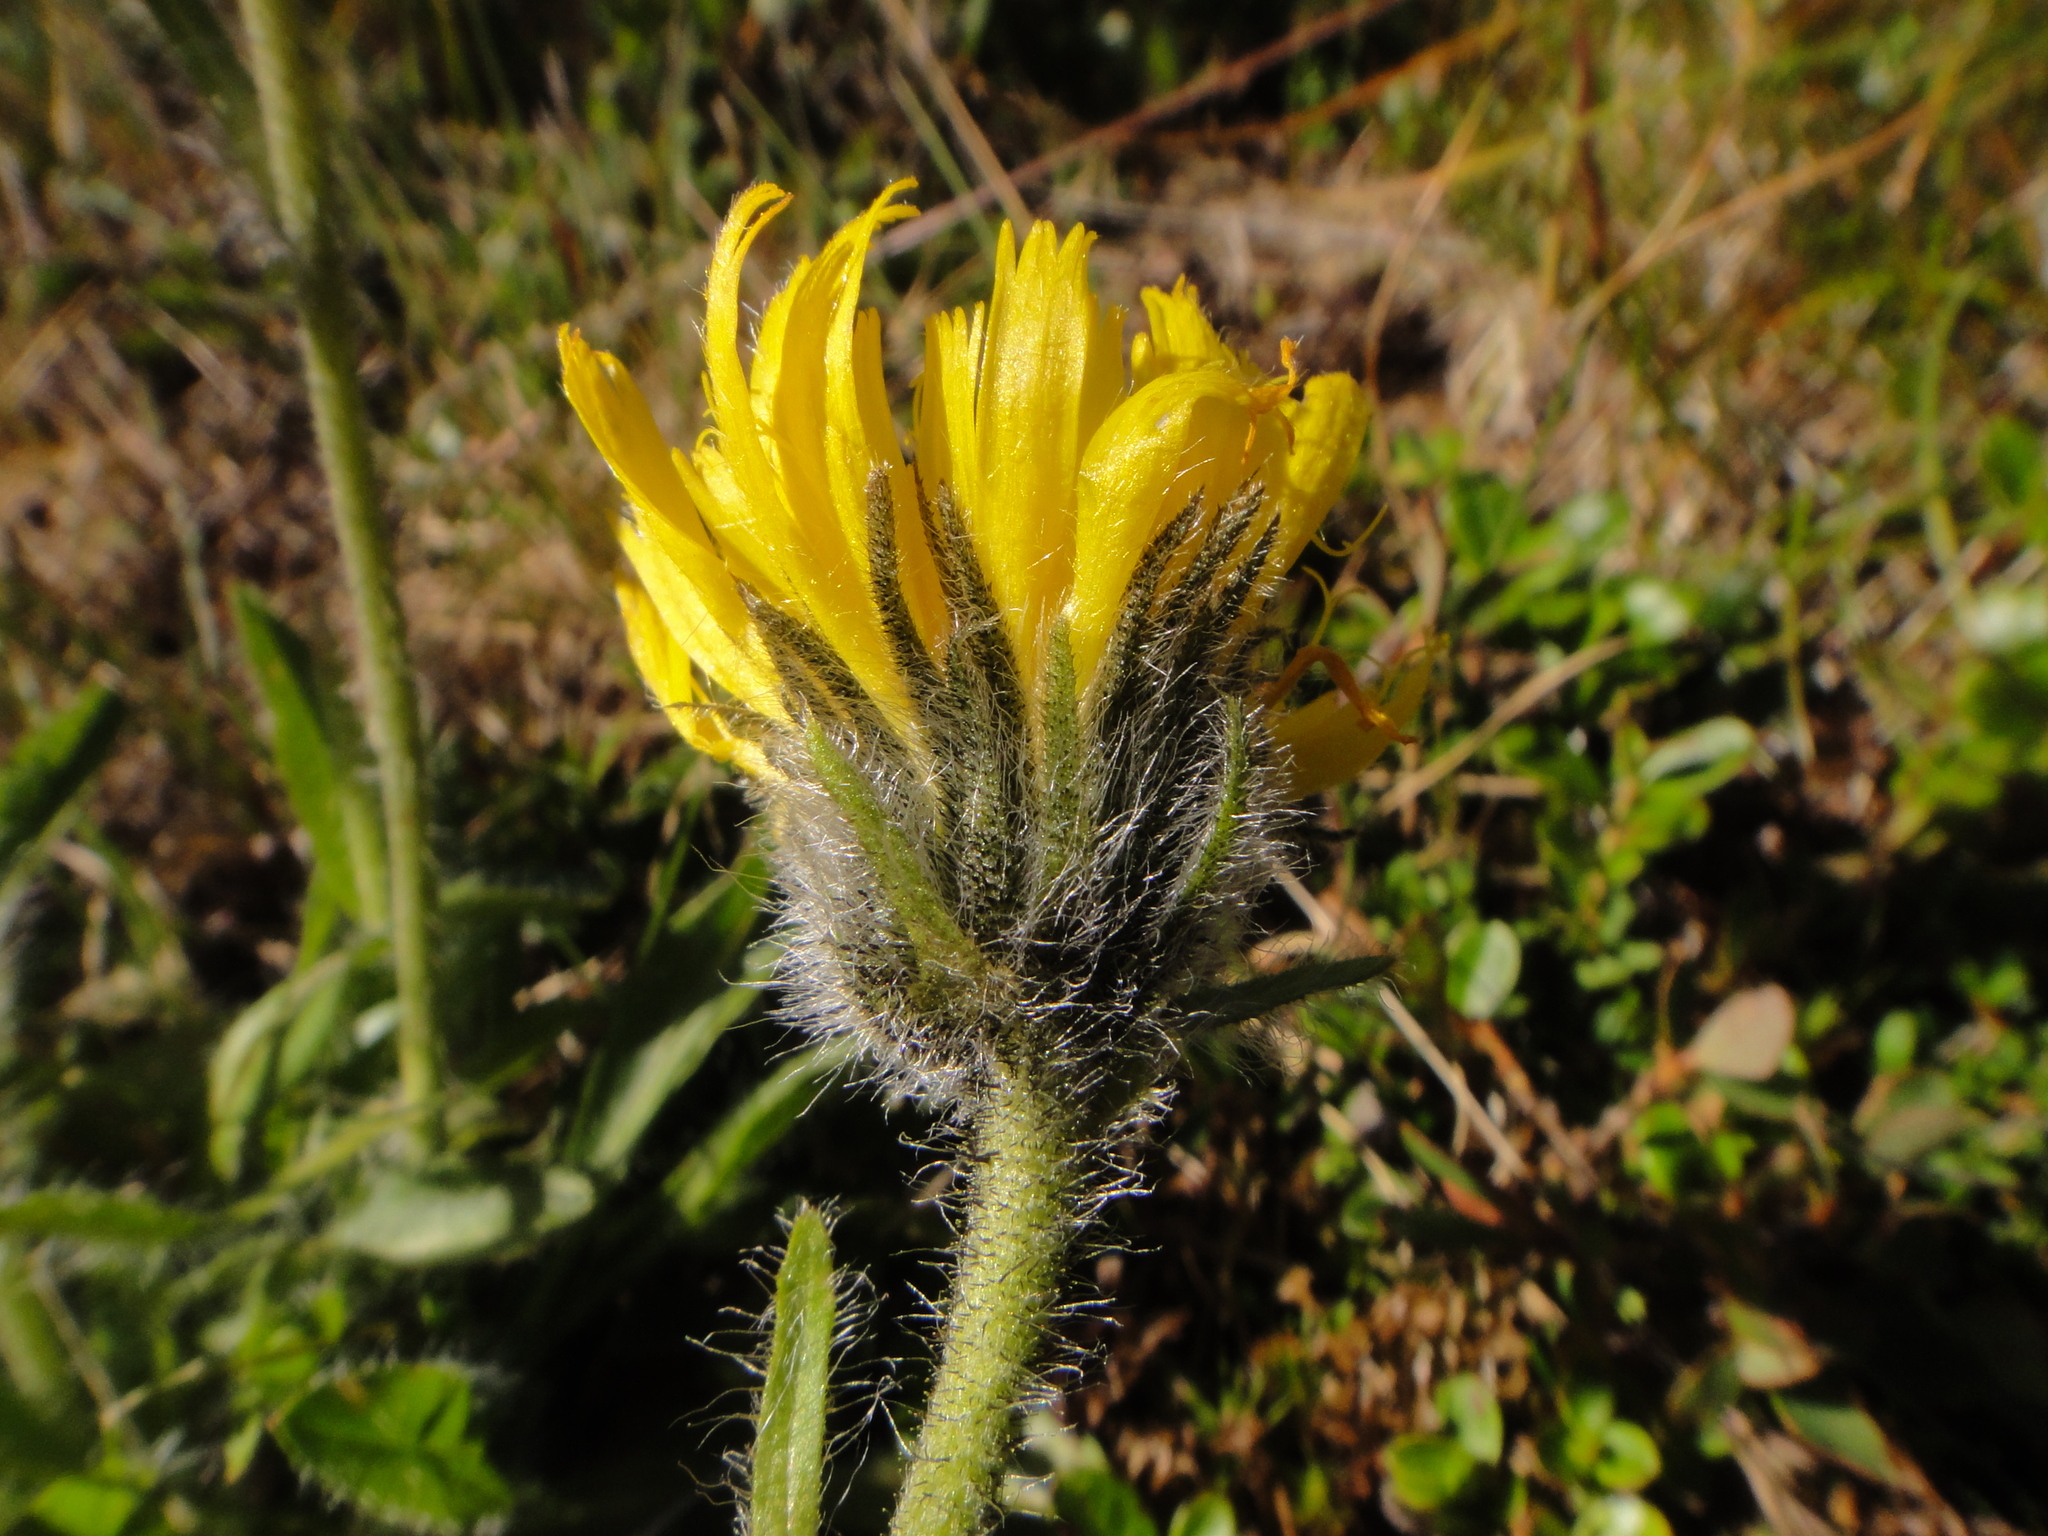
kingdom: Plantae
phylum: Tracheophyta
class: Magnoliopsida
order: Asterales
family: Asteraceae
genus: Hieracium
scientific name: Hieracium alpinum
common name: Alpine hawkweed
